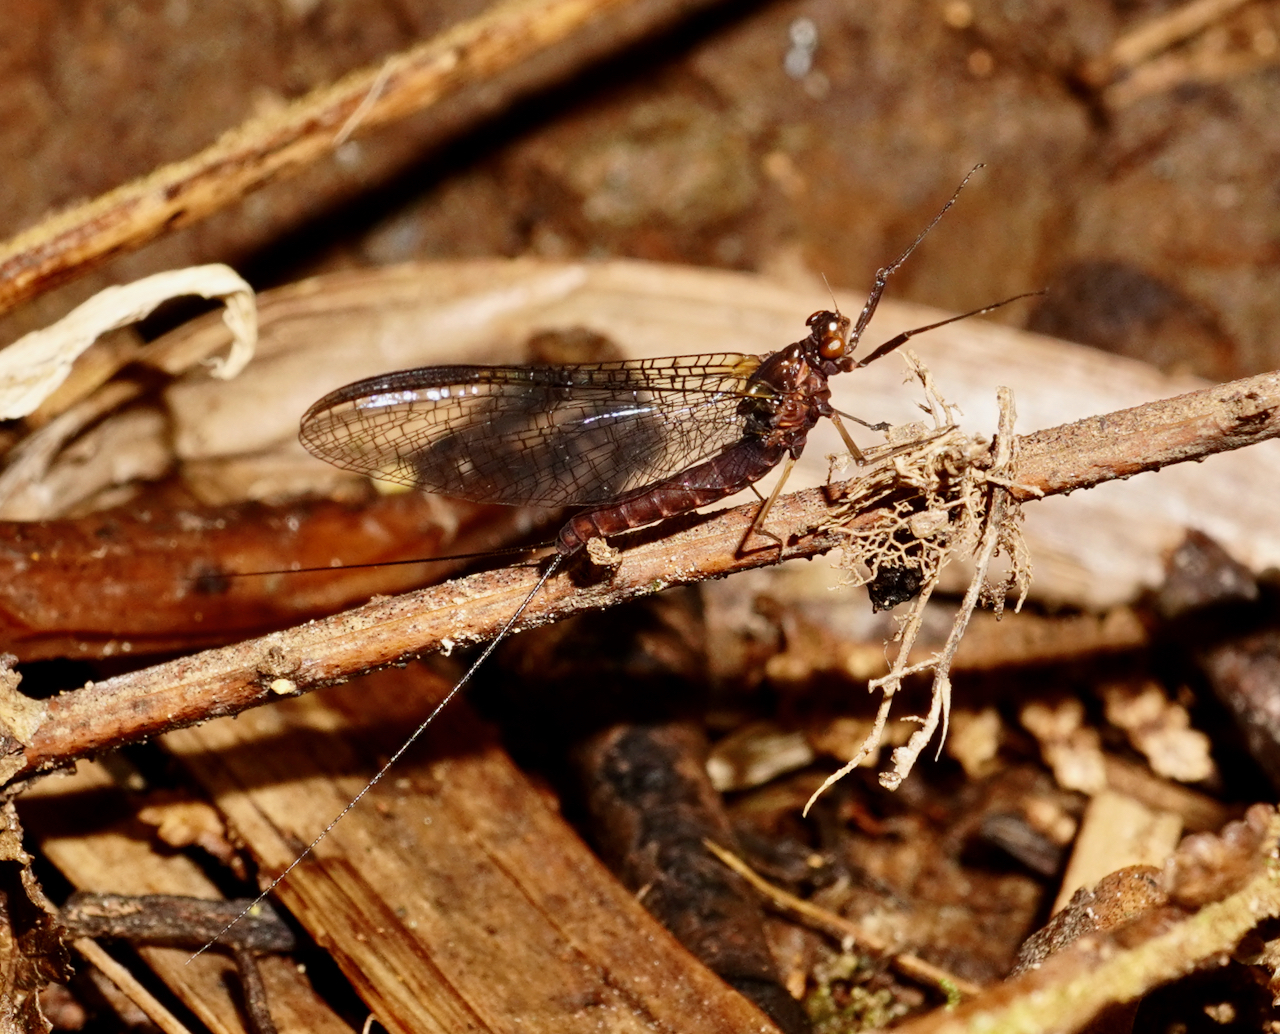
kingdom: Animalia
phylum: Arthropoda
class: Insecta
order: Ephemeroptera
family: Coloburiscidae
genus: Coloburiscus
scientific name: Coloburiscus humeralis
